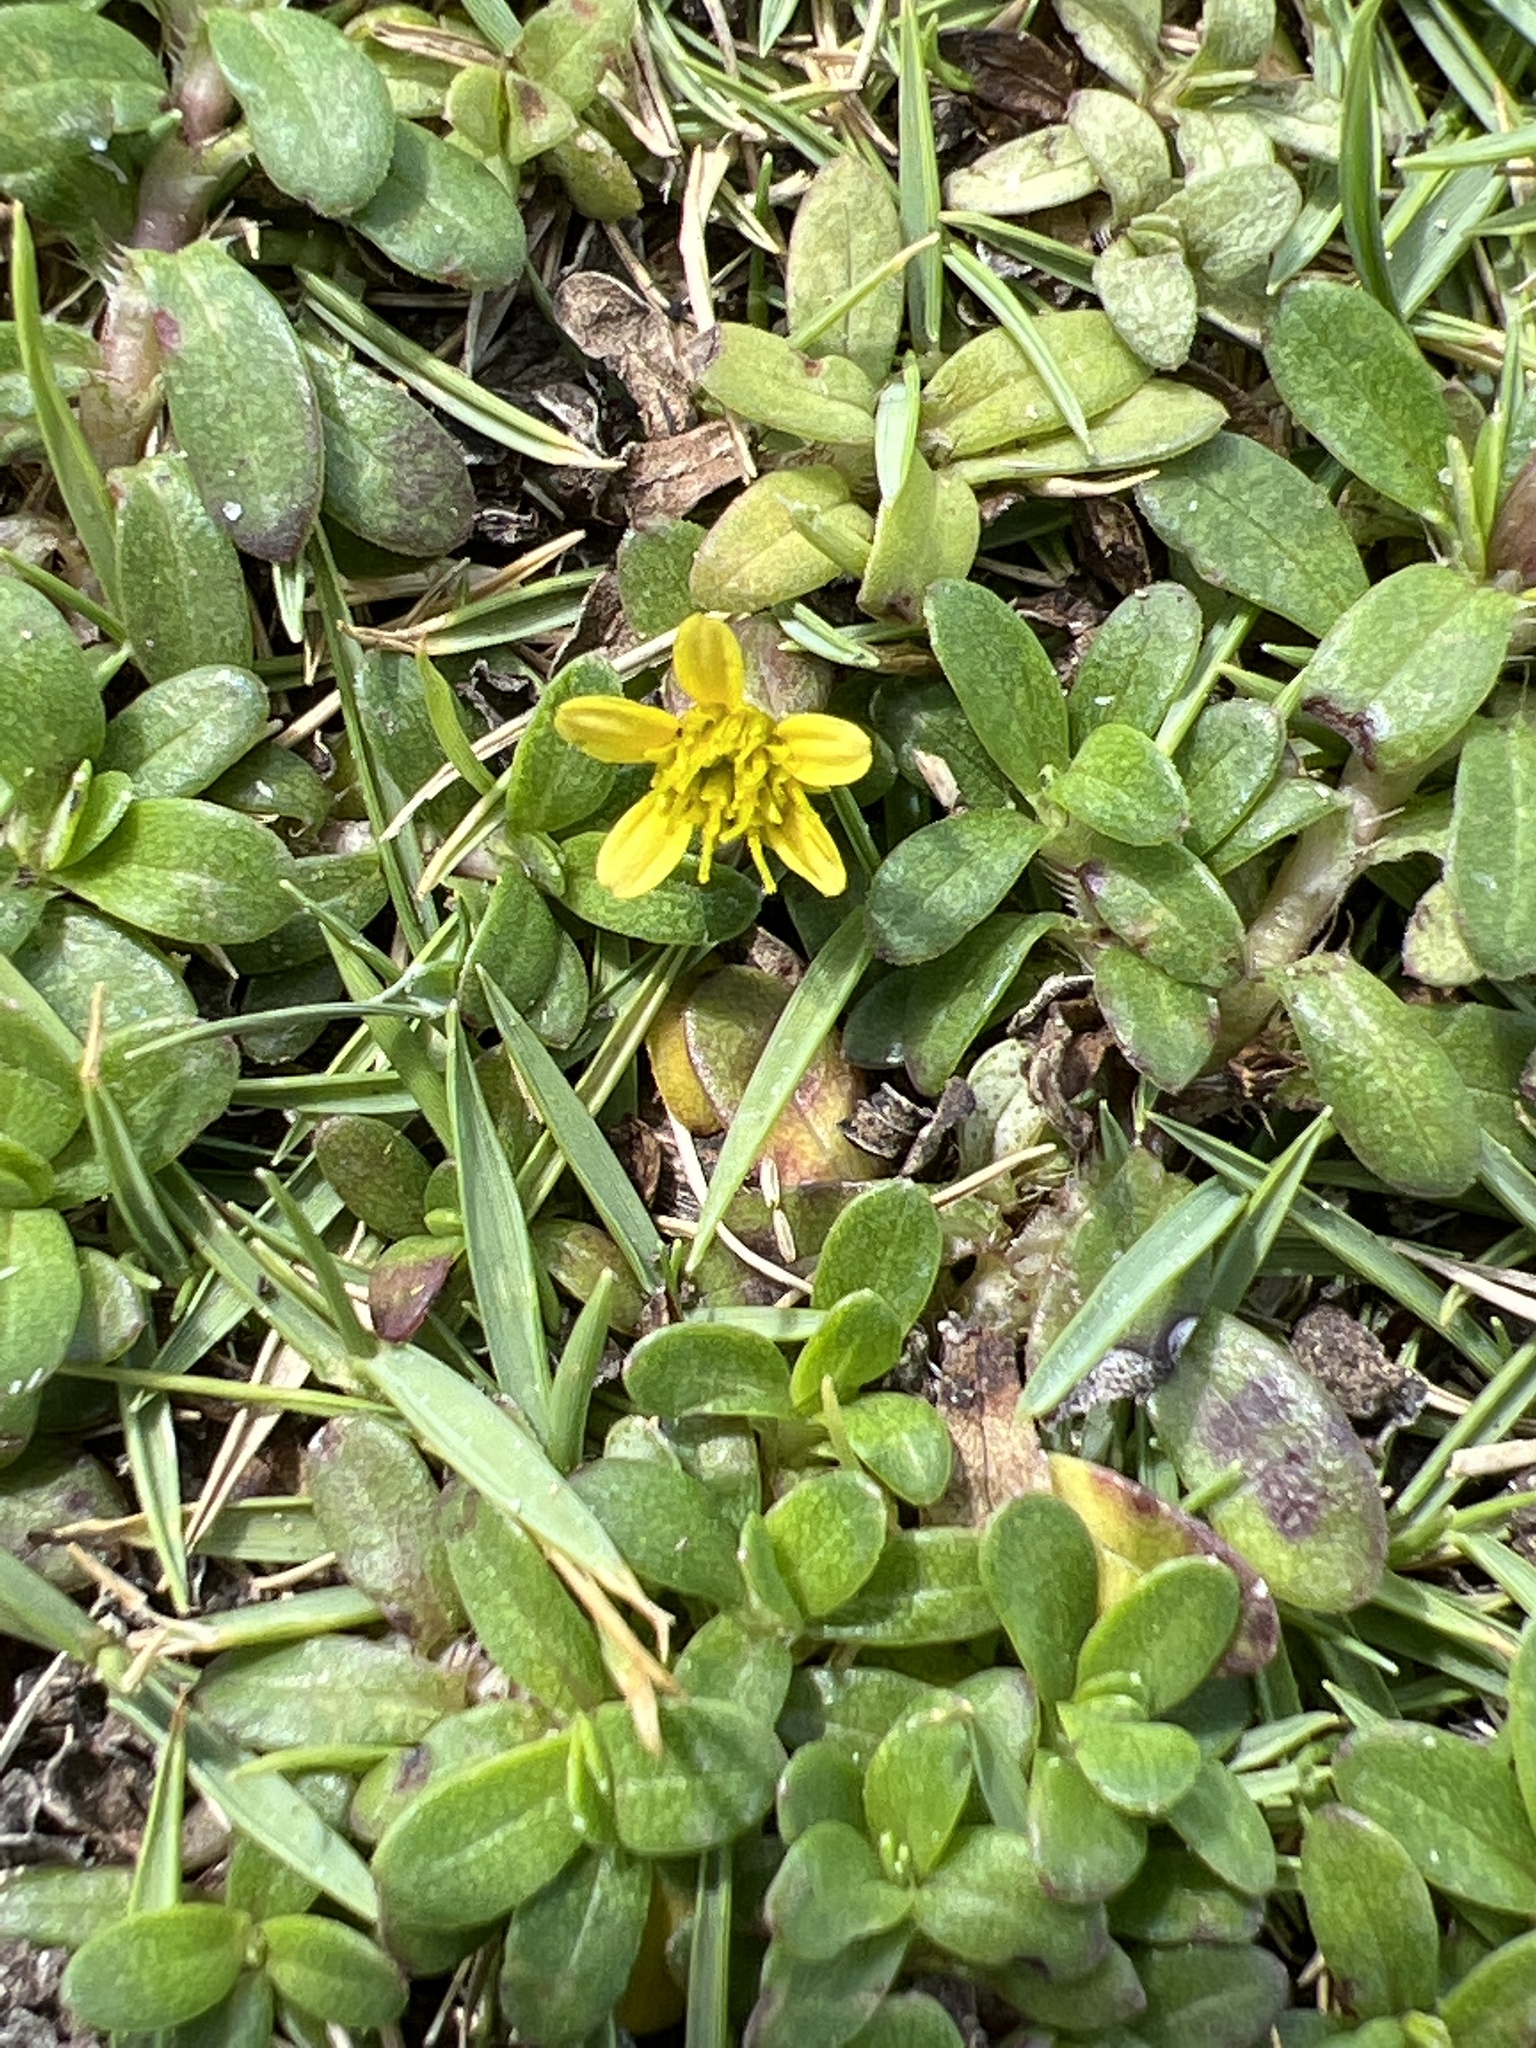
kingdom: Plantae
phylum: Tracheophyta
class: Magnoliopsida
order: Asterales
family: Asteraceae
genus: Pectis
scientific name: Pectis humifusa
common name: Yerba de san juan
